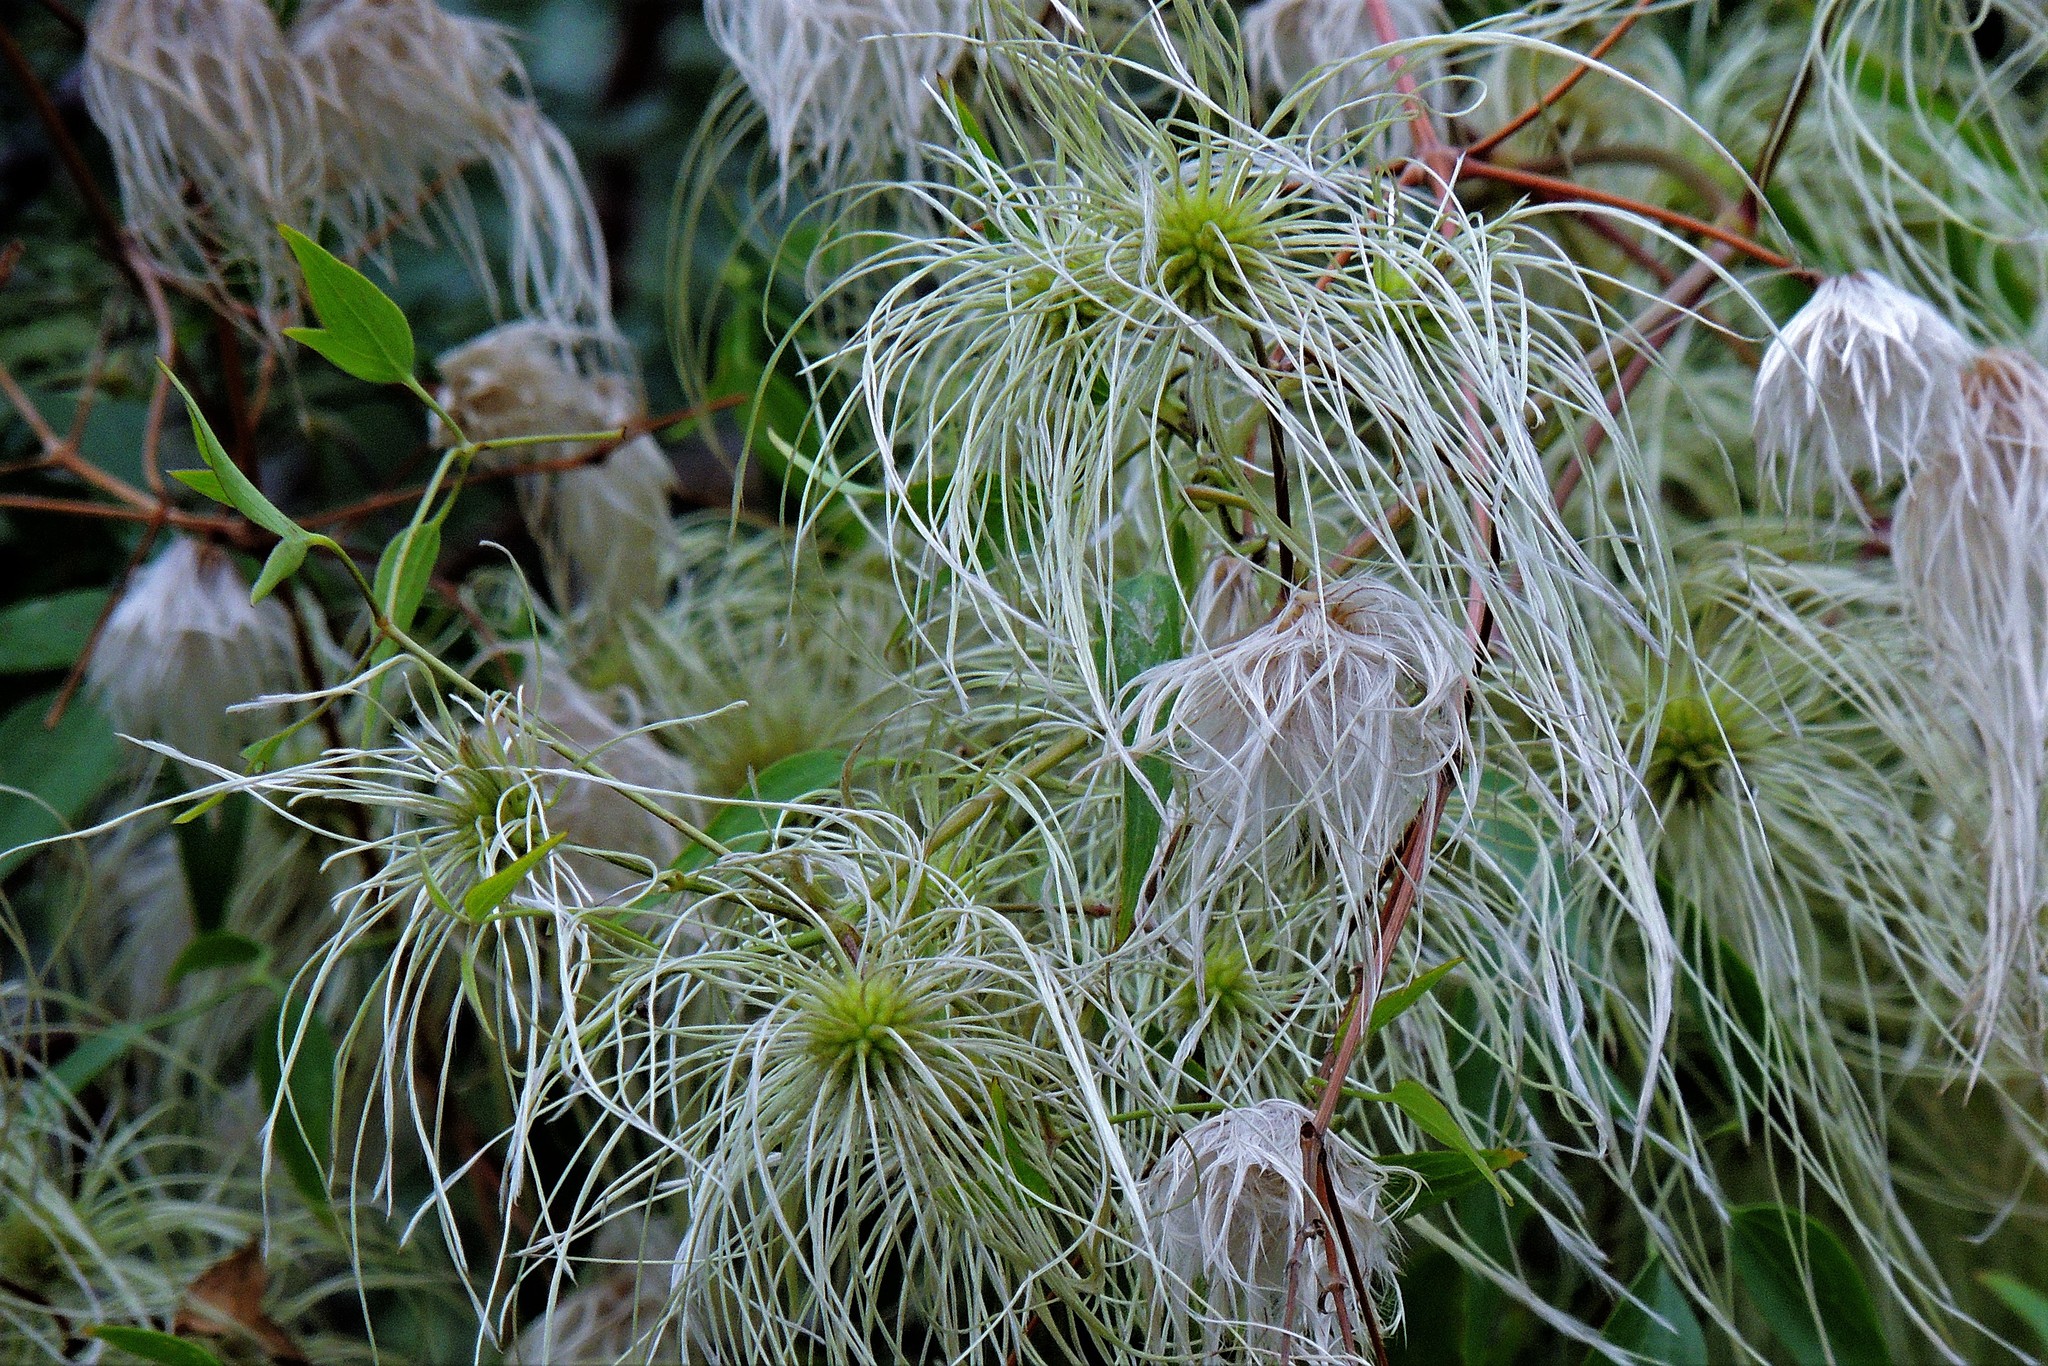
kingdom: Plantae
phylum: Tracheophyta
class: Magnoliopsida
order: Ranunculales
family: Ranunculaceae
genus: Clematis
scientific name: Clematis montevidensis
